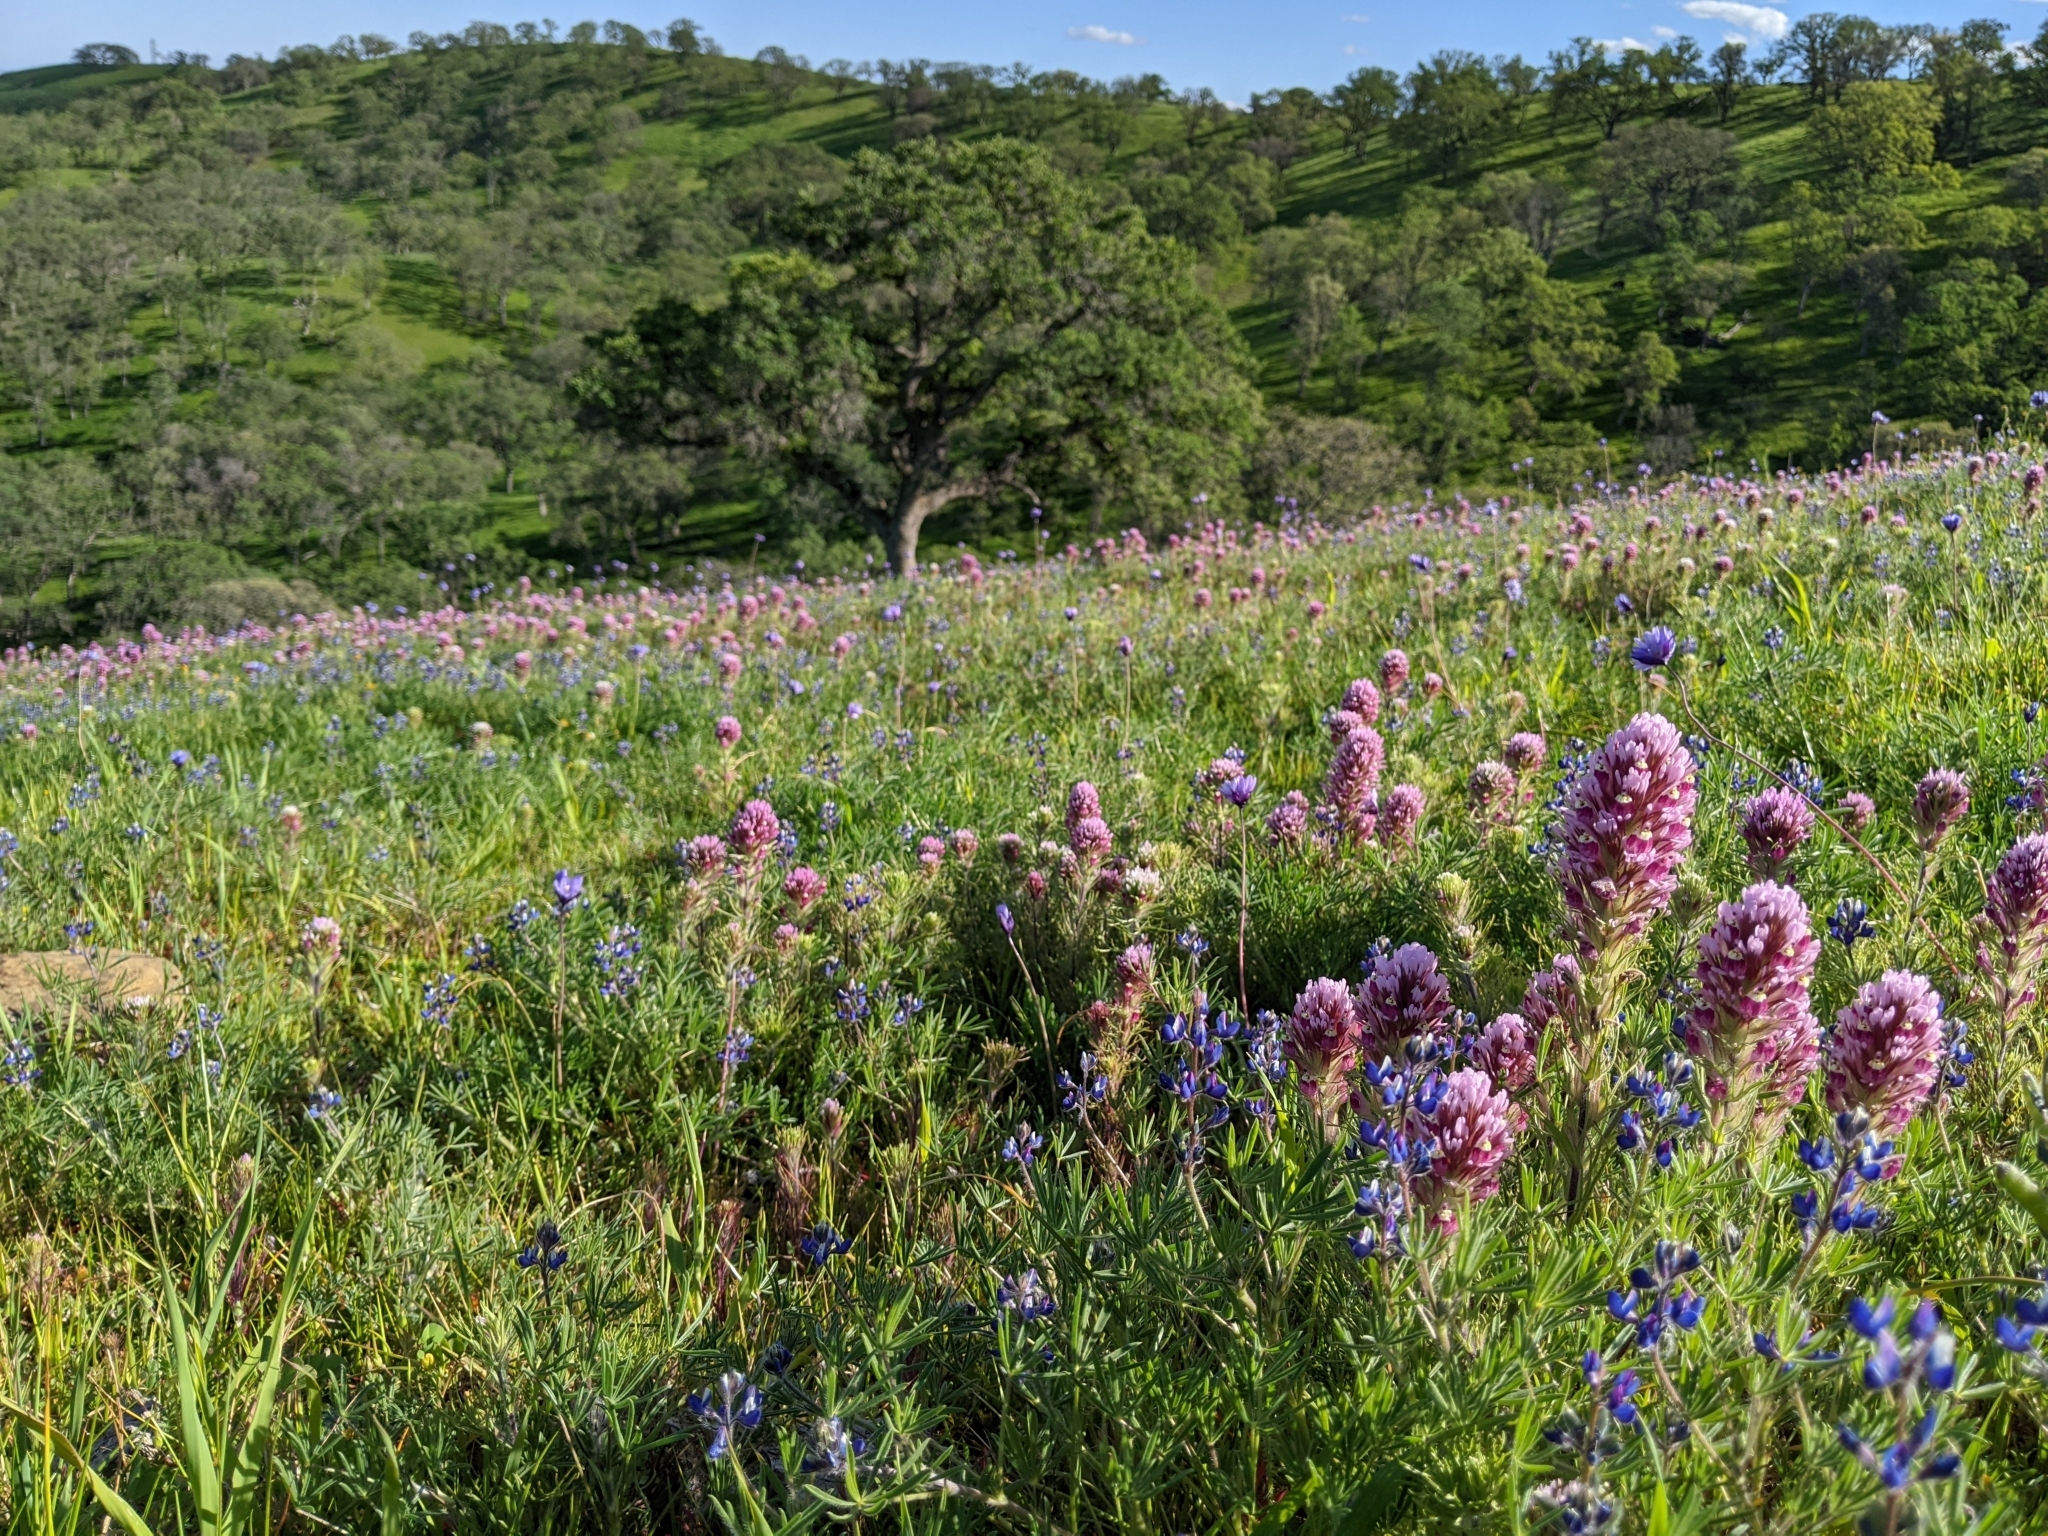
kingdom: Plantae
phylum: Tracheophyta
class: Magnoliopsida
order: Lamiales
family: Orobanchaceae
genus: Castilleja
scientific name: Castilleja exserta
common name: Purple owl-clover
